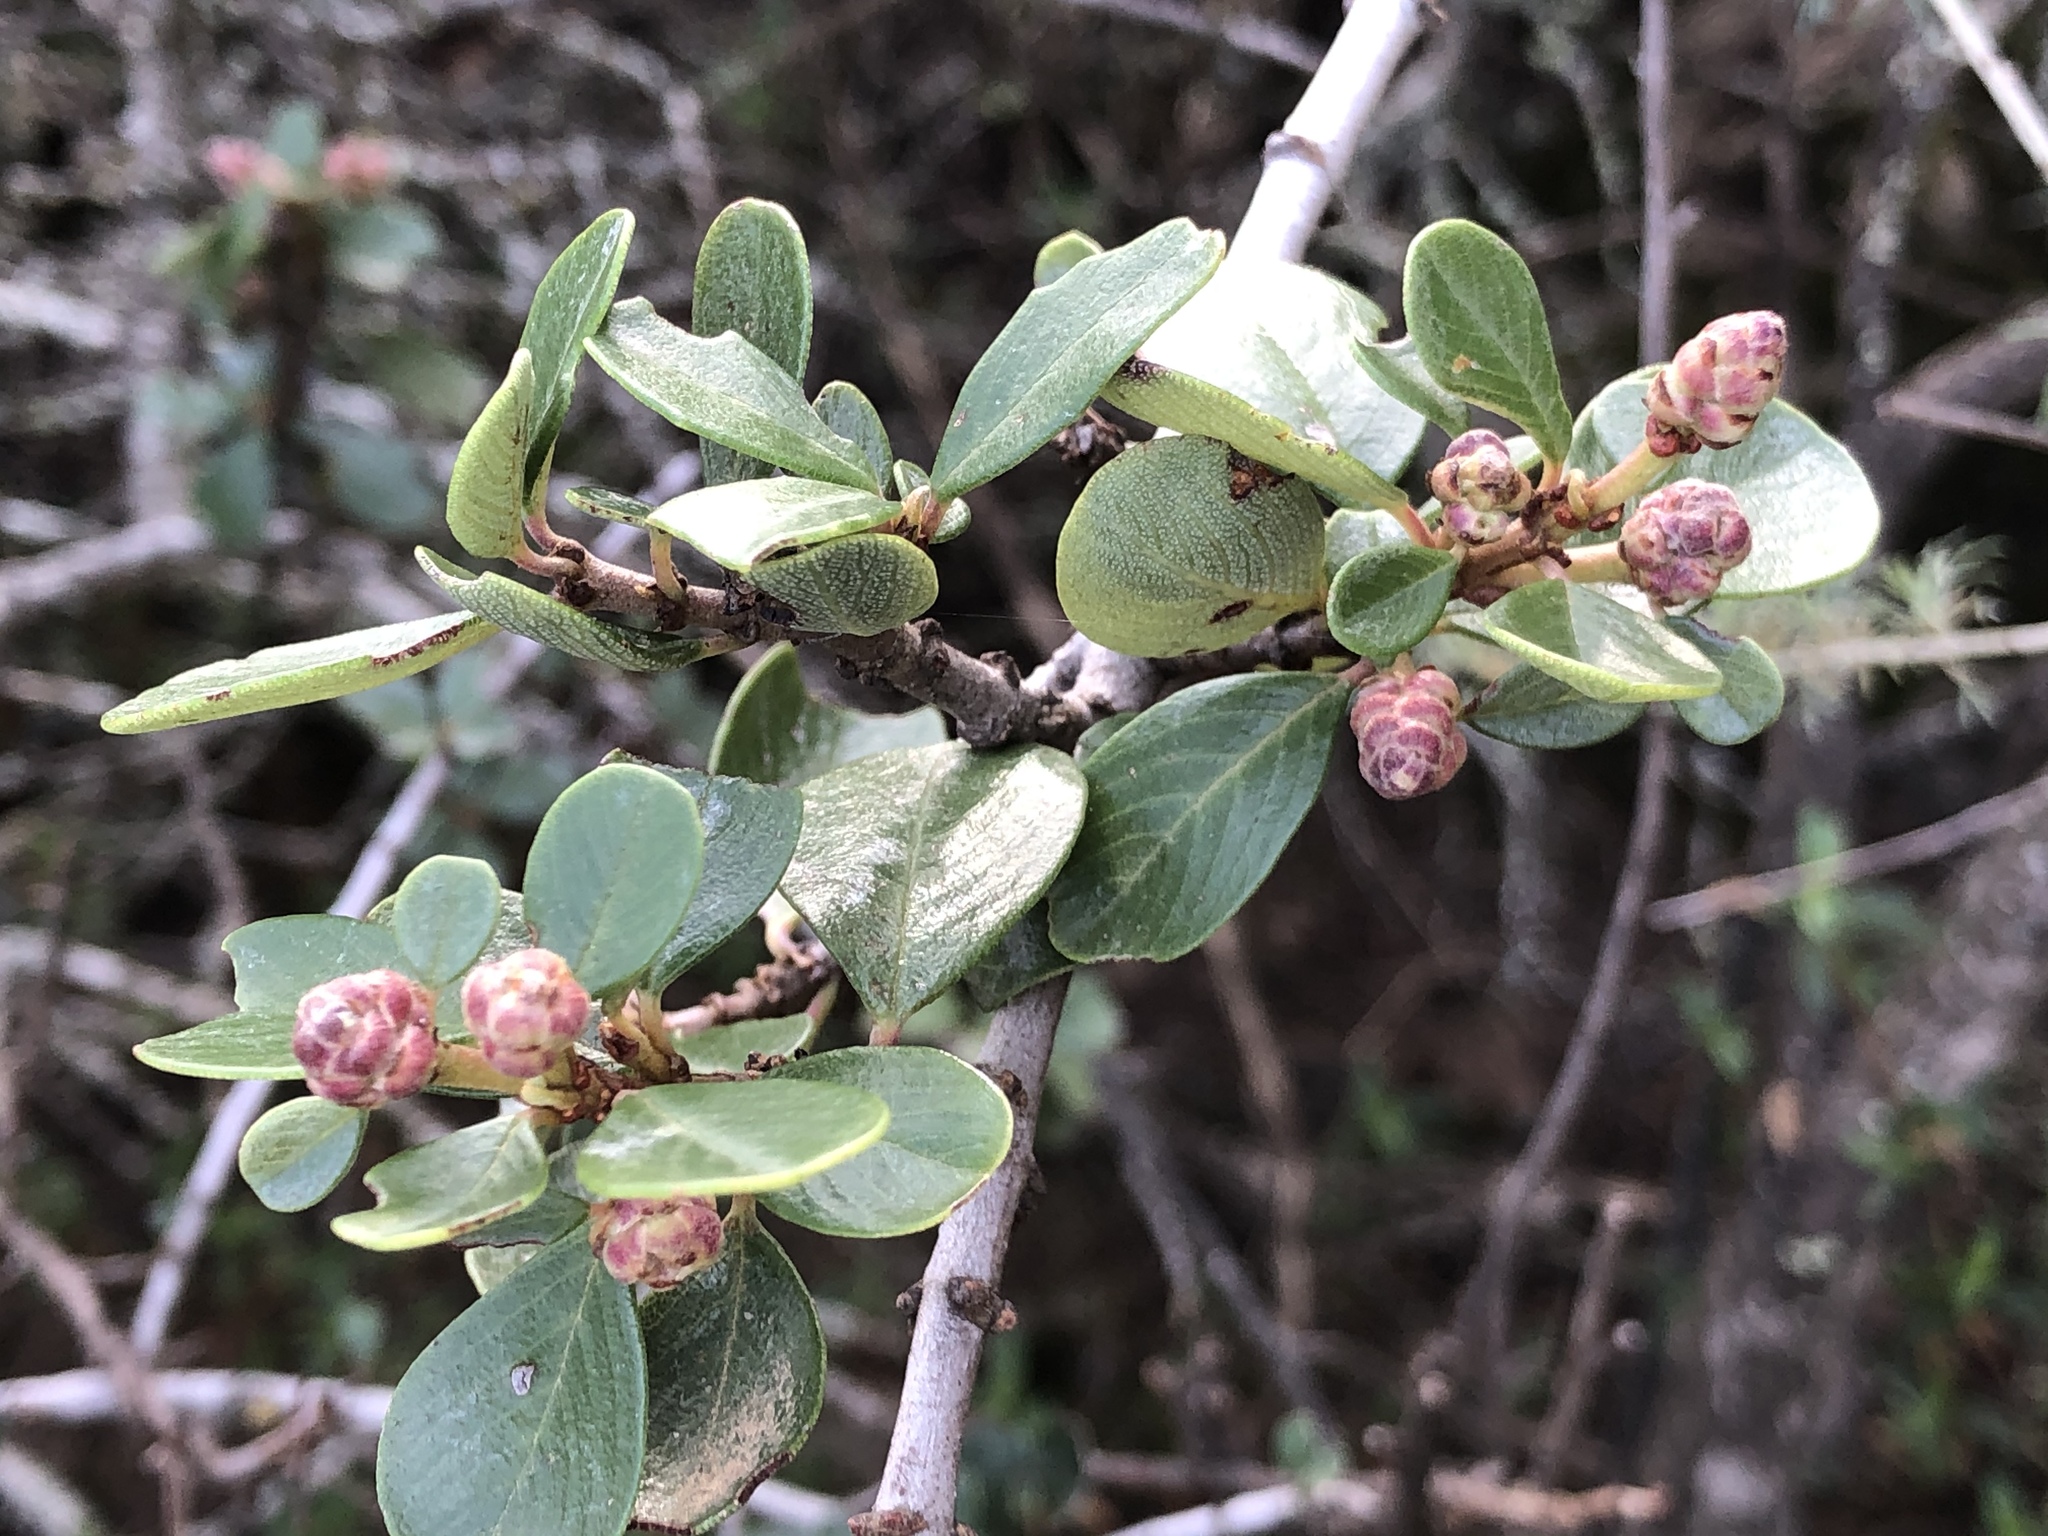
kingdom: Plantae
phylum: Tracheophyta
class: Magnoliopsida
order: Rosales
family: Rhamnaceae
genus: Ceanothus
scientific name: Ceanothus cuneatus
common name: Cuneate ceanothus
